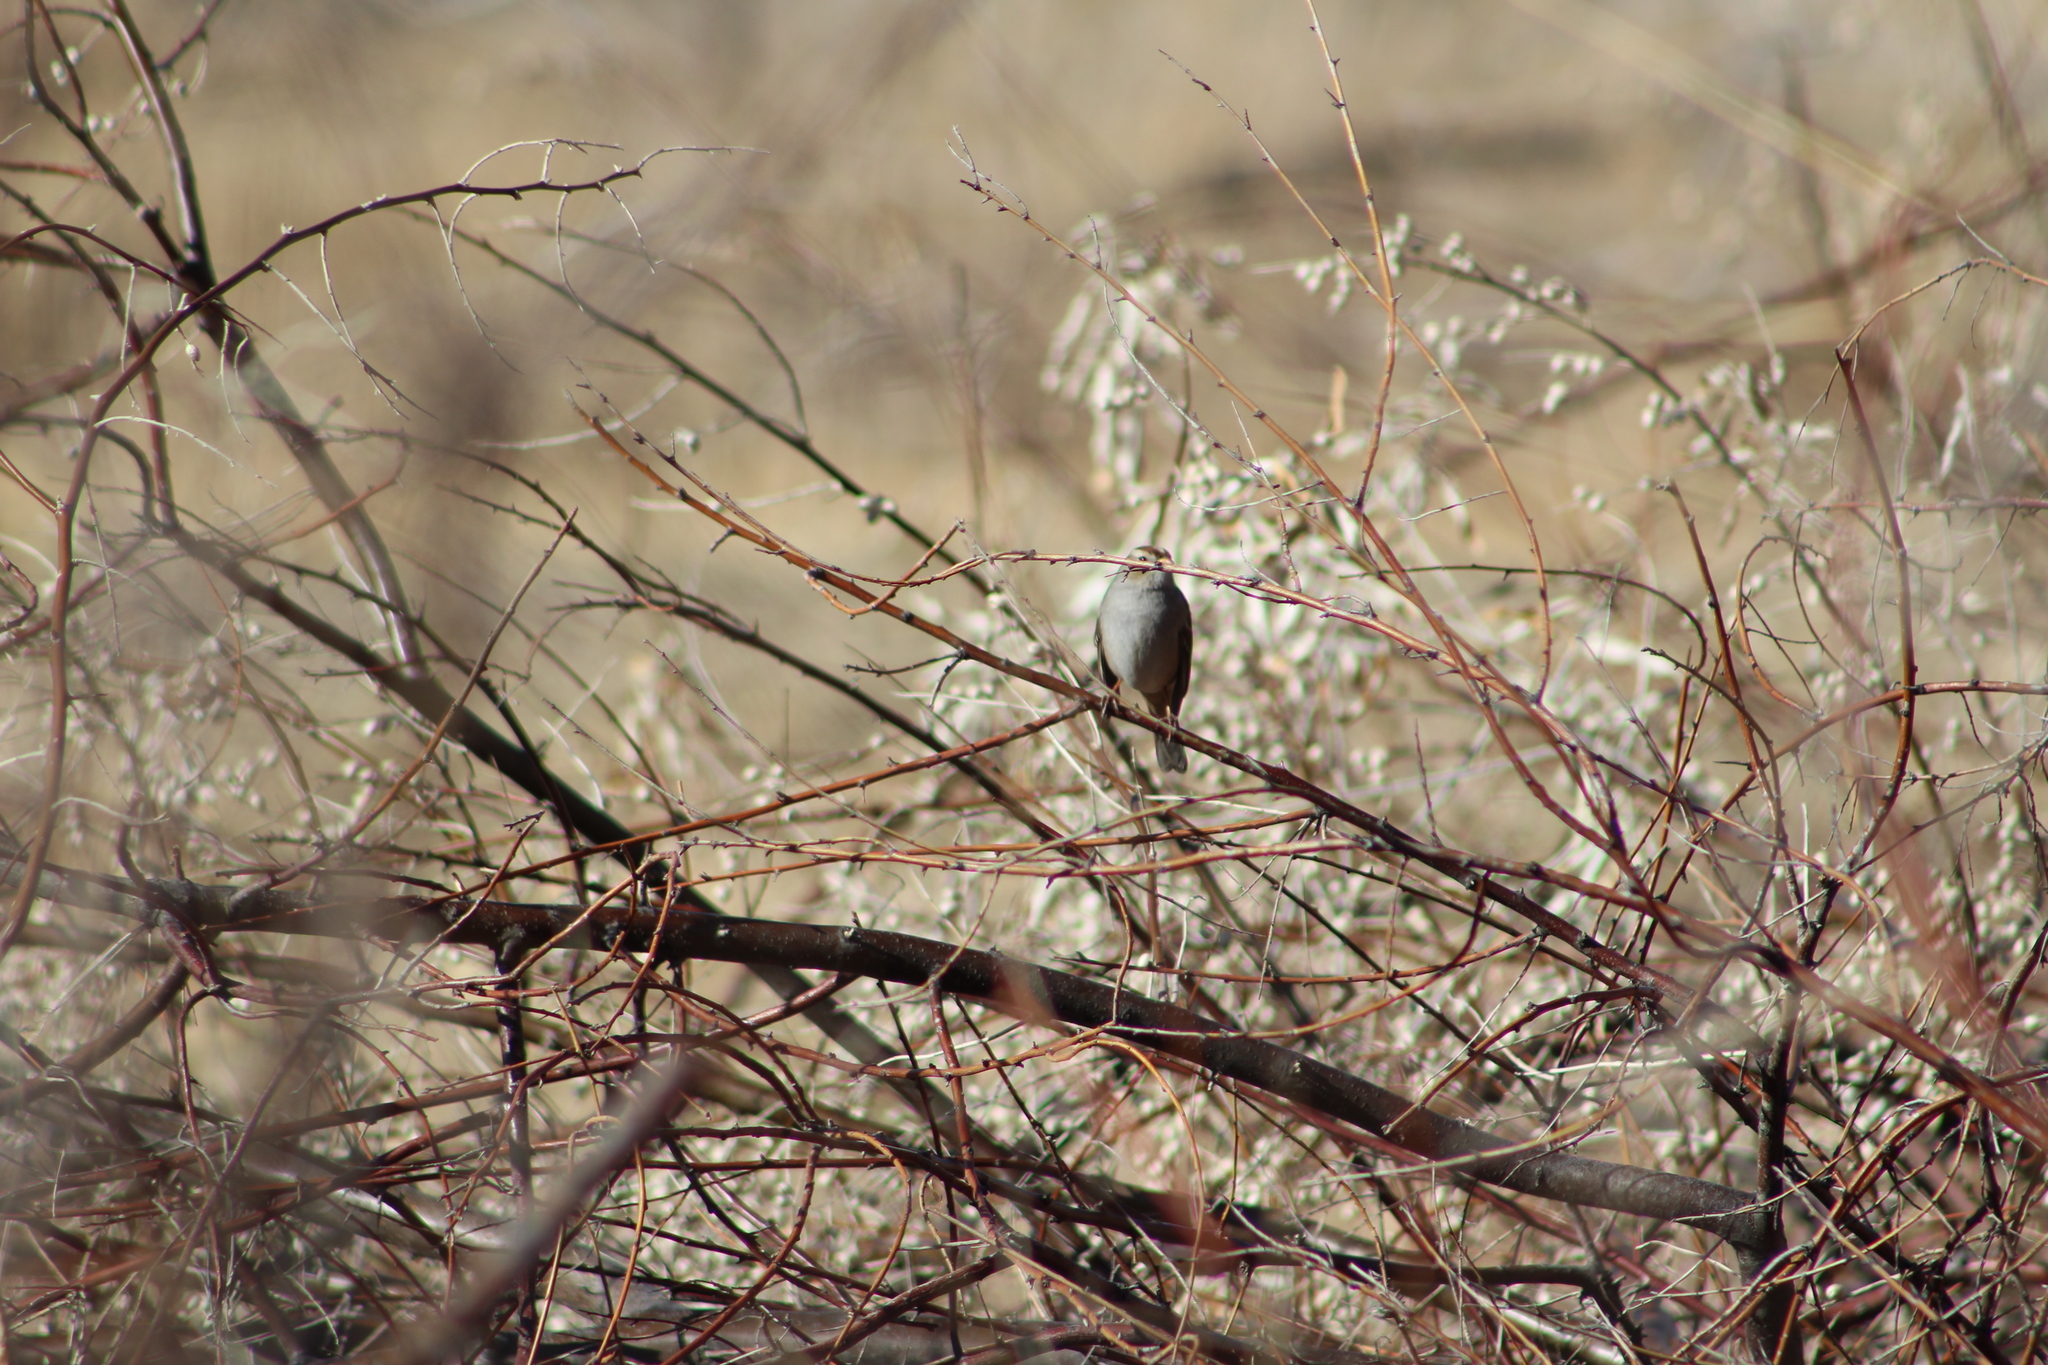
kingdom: Animalia
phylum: Chordata
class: Aves
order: Passeriformes
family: Passerellidae
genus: Zonotrichia
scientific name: Zonotrichia leucophrys
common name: White-crowned sparrow
